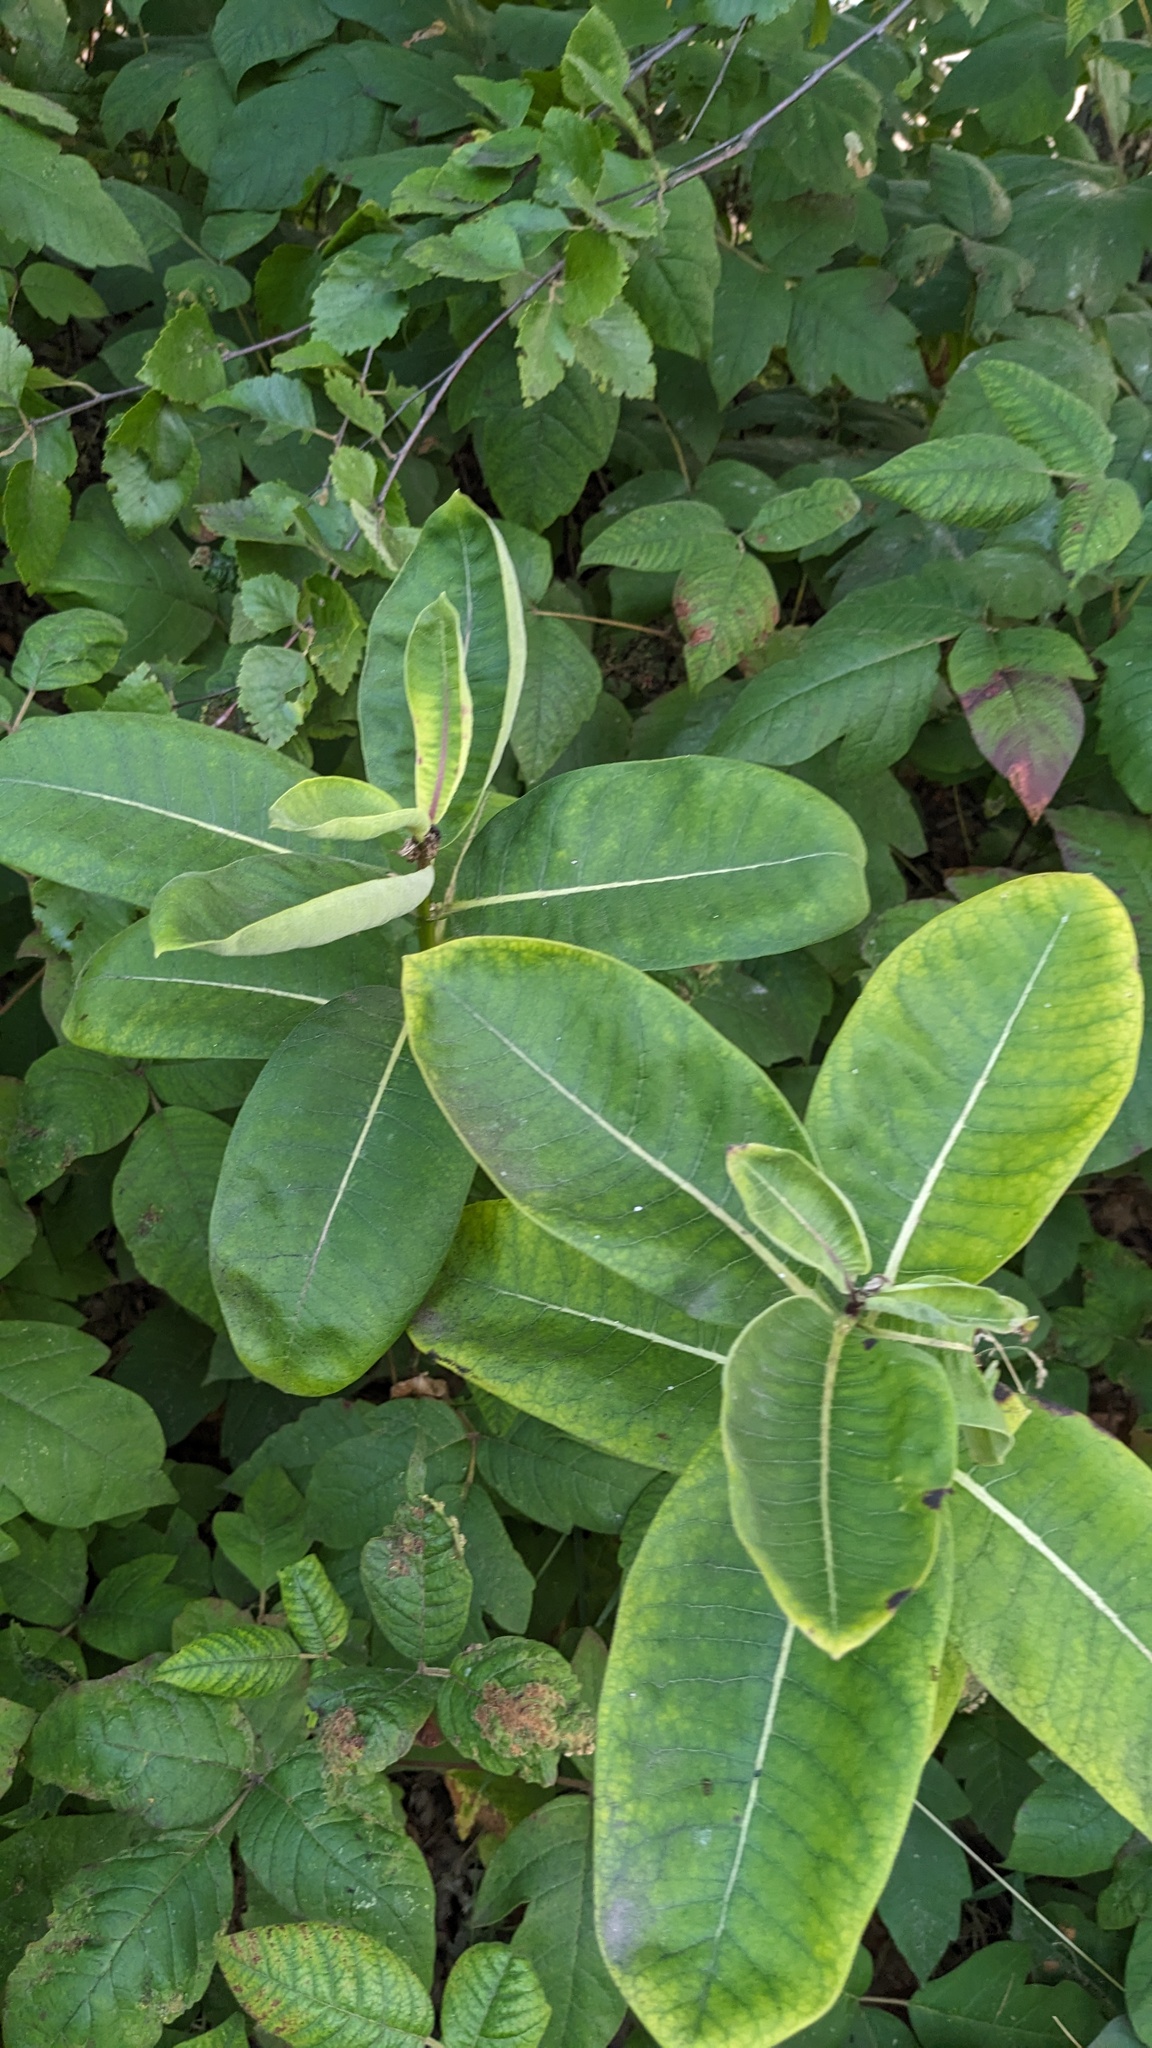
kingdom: Plantae
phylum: Tracheophyta
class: Magnoliopsida
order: Gentianales
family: Apocynaceae
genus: Asclepias
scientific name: Asclepias syriaca
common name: Common milkweed
